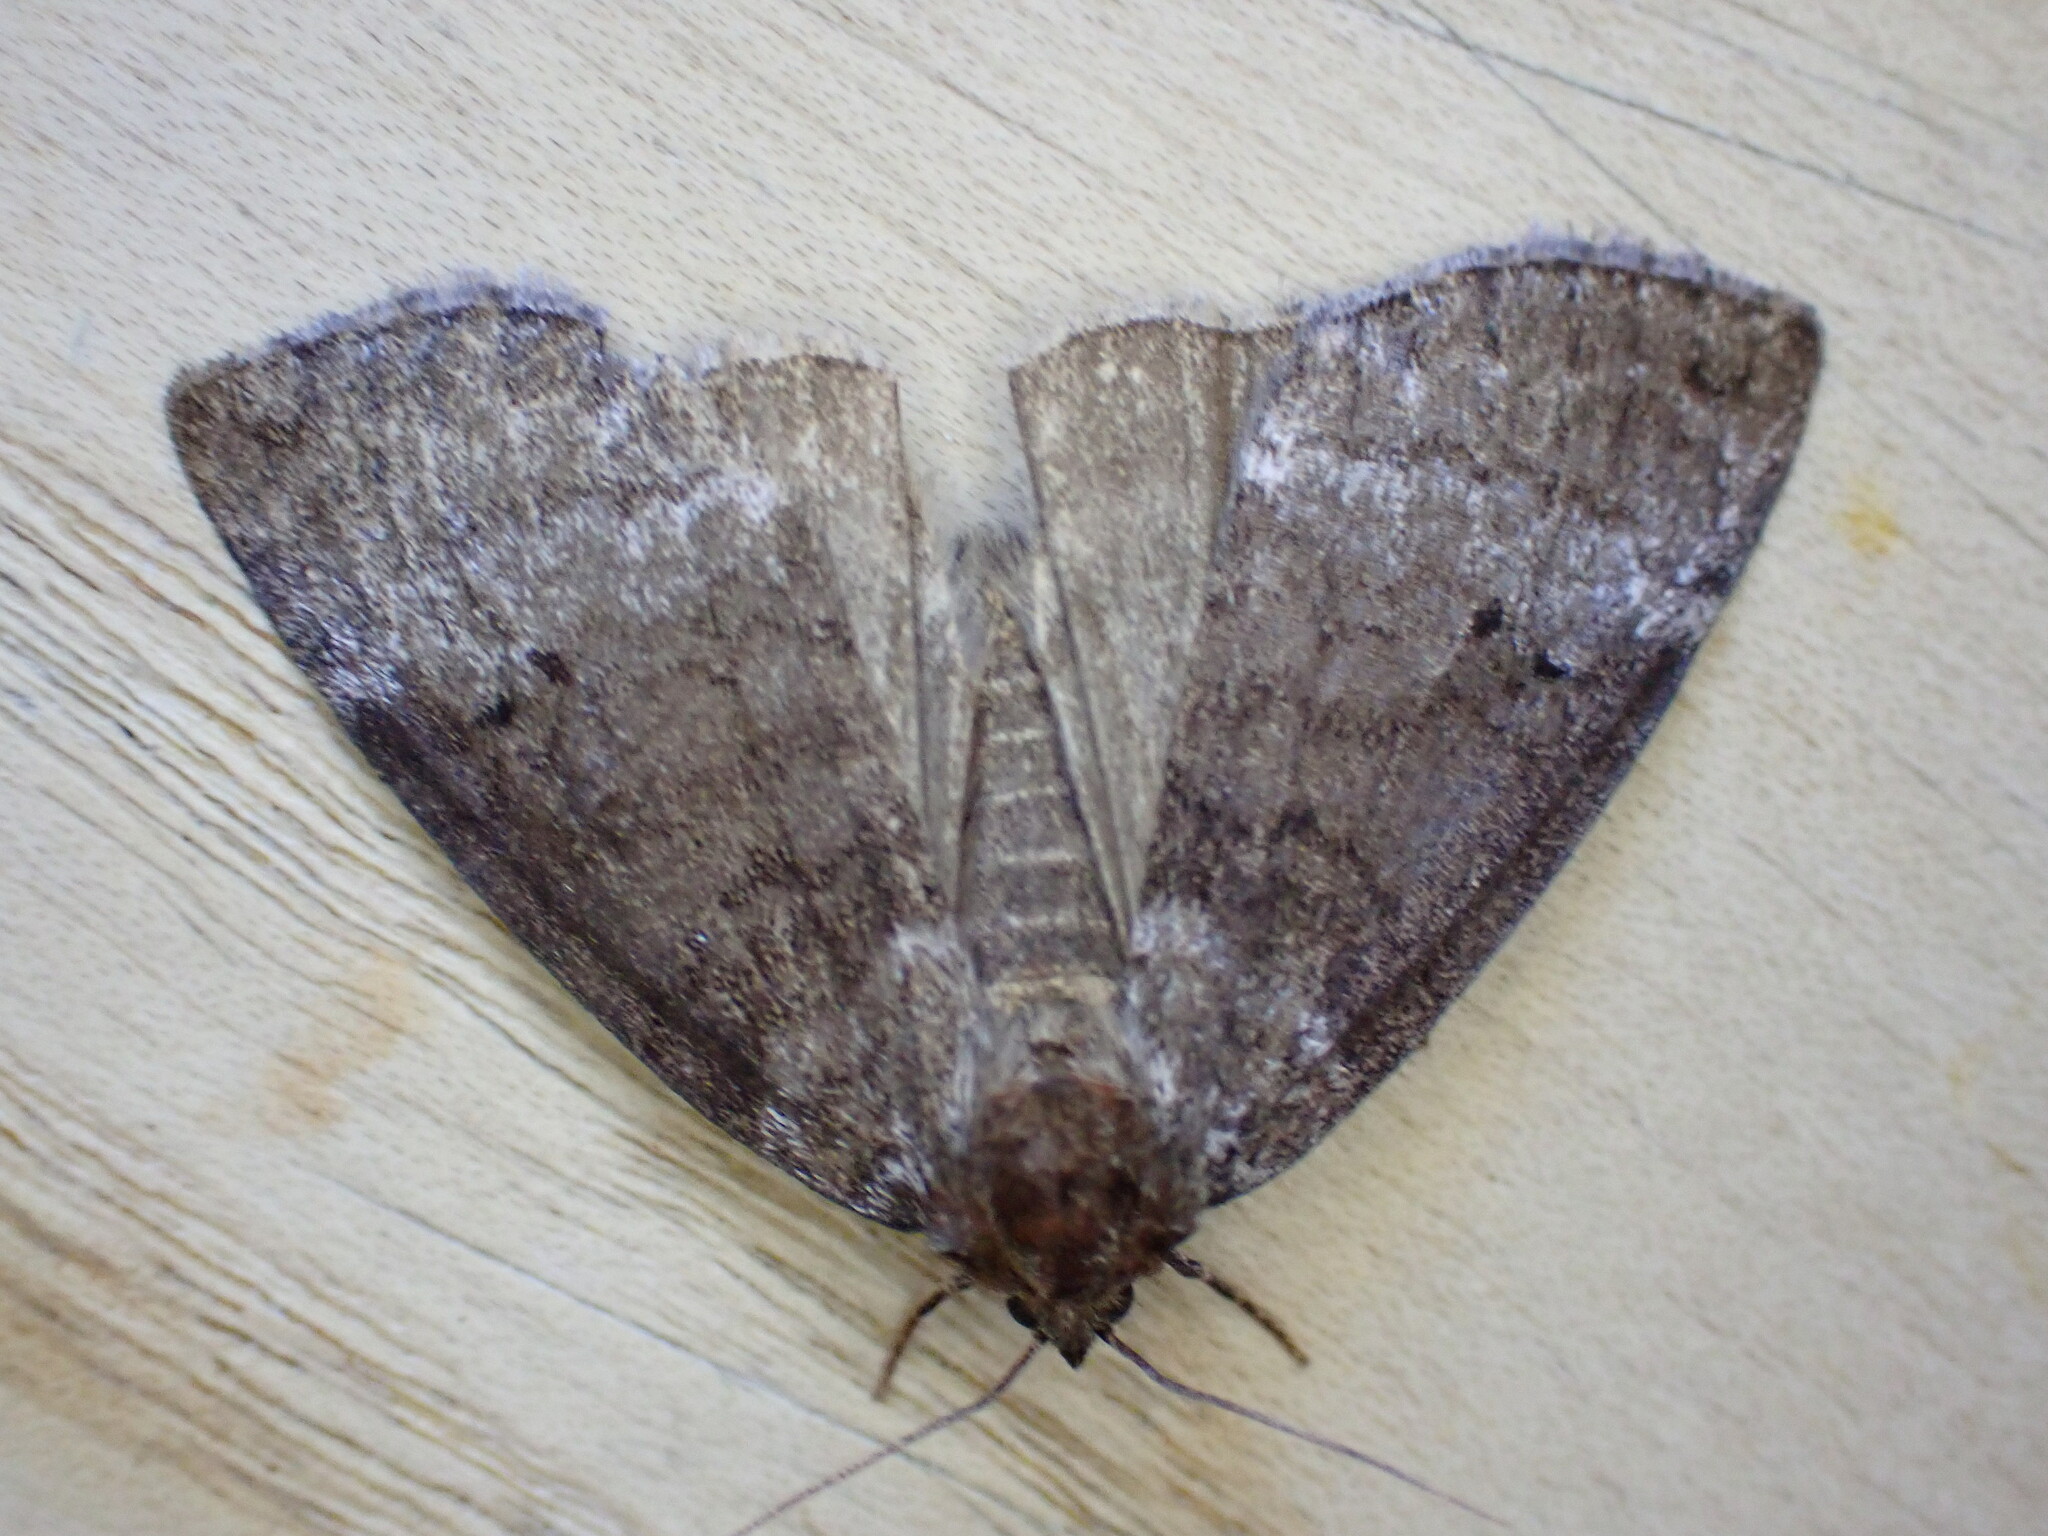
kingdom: Animalia
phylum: Arthropoda
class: Insecta
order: Lepidoptera
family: Drepanidae
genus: Ochropacha
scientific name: Ochropacha duplaris
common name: Common lutestring
